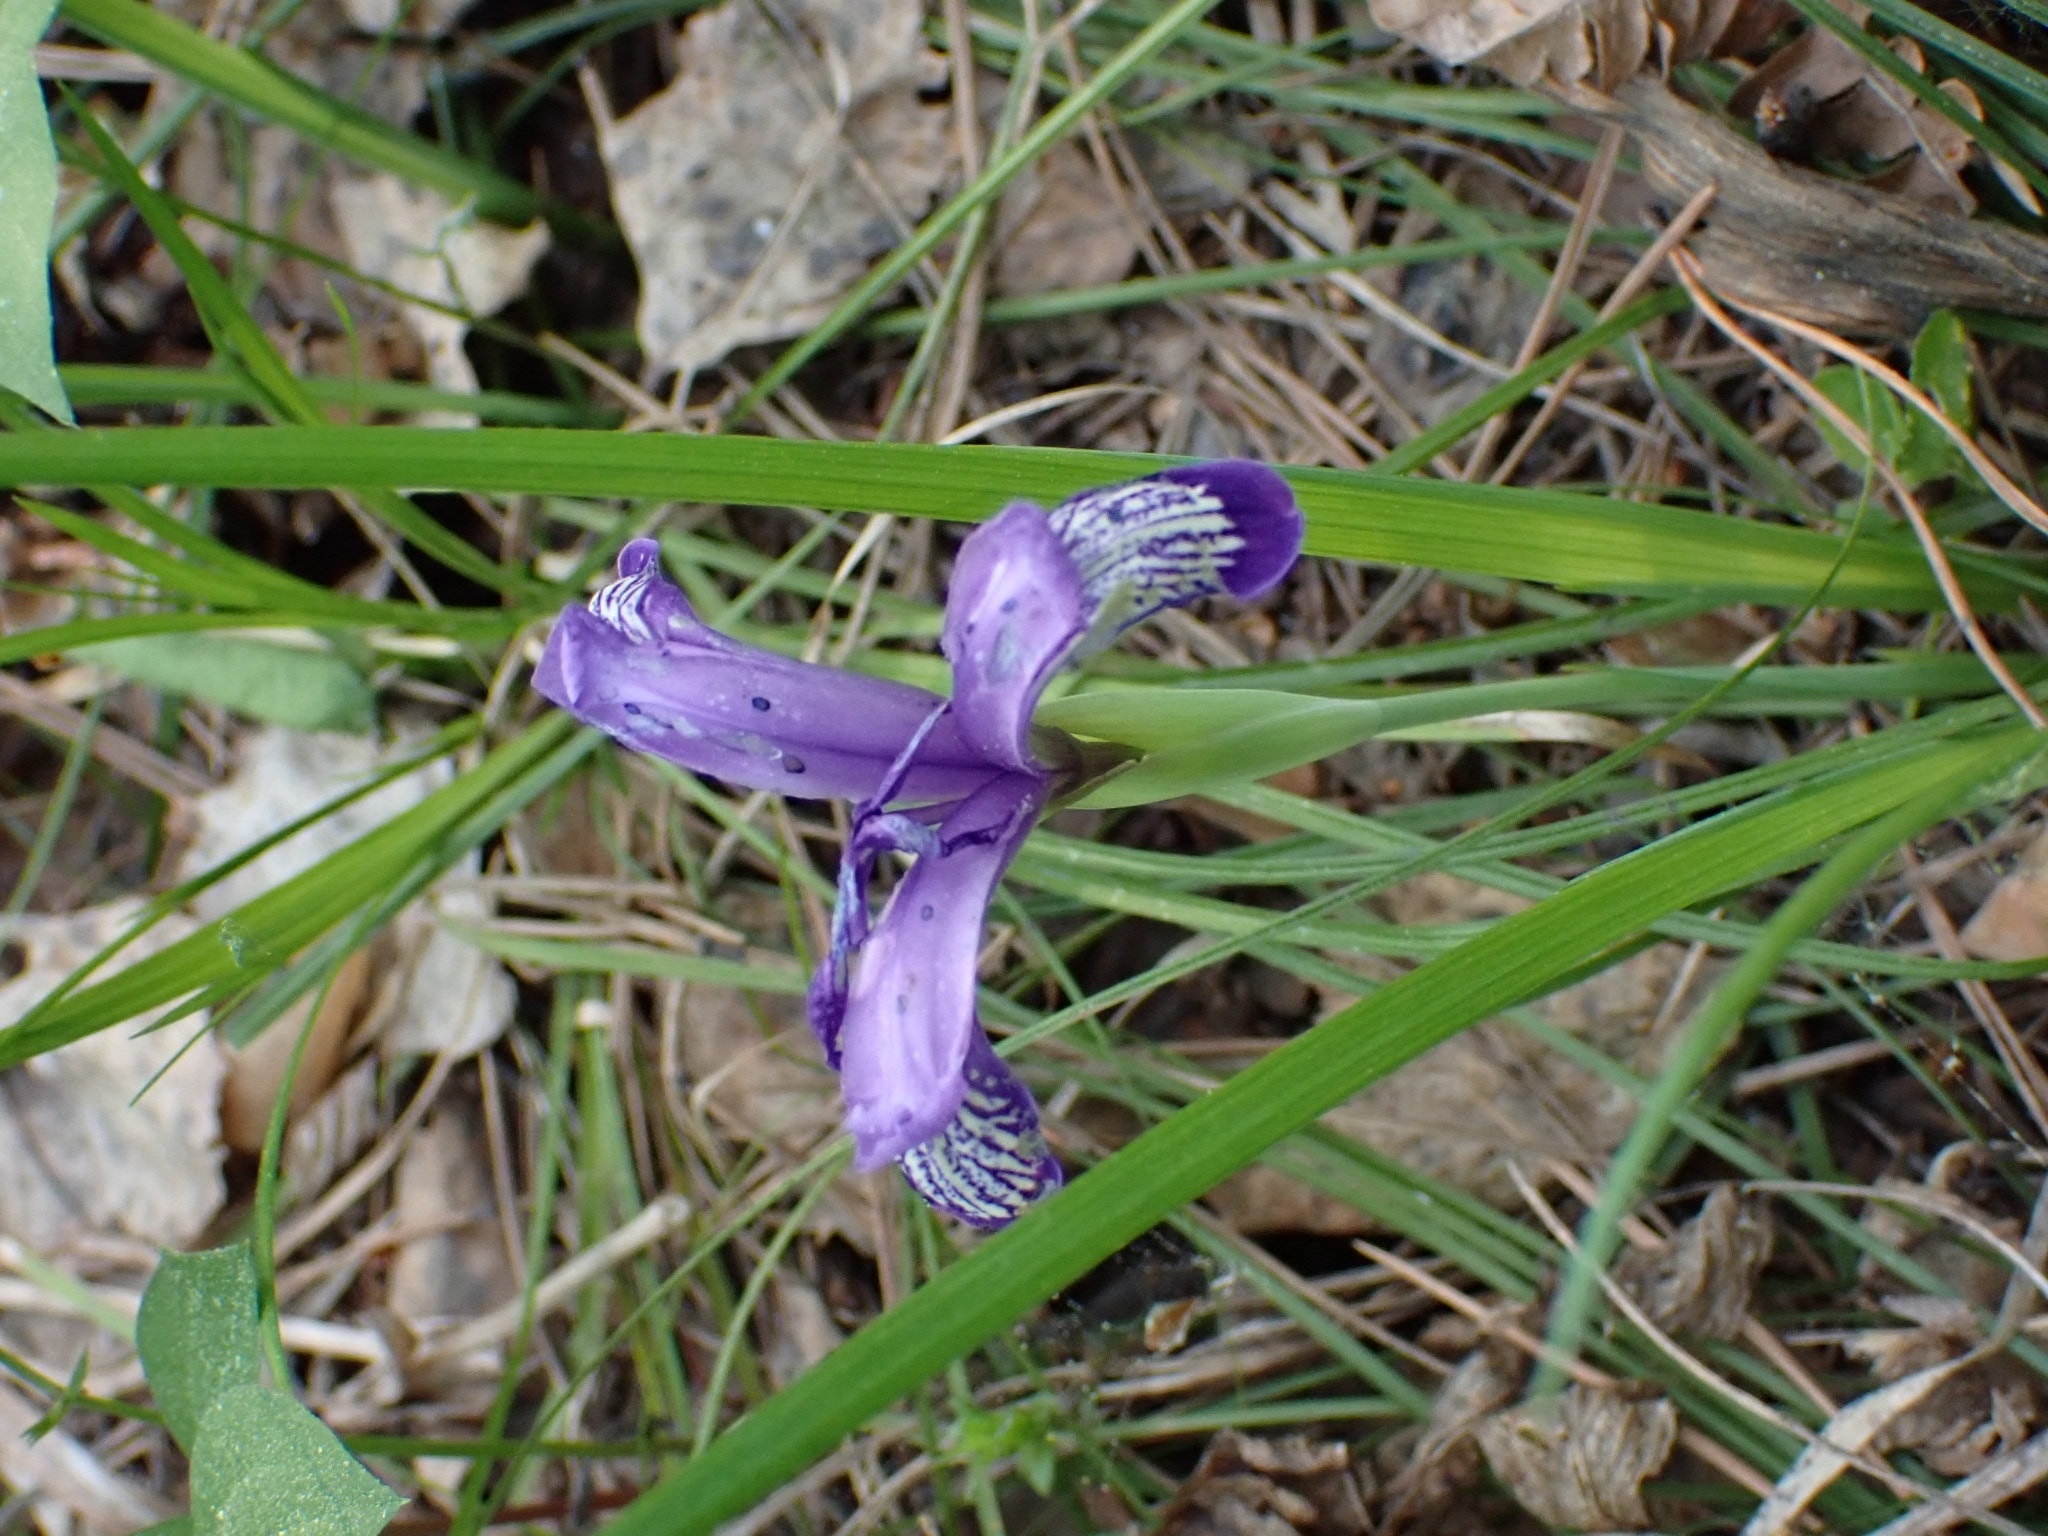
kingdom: Plantae
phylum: Tracheophyta
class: Liliopsida
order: Asparagales
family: Iridaceae
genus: Iris
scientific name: Iris ruthenica
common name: Purple-bract iris
